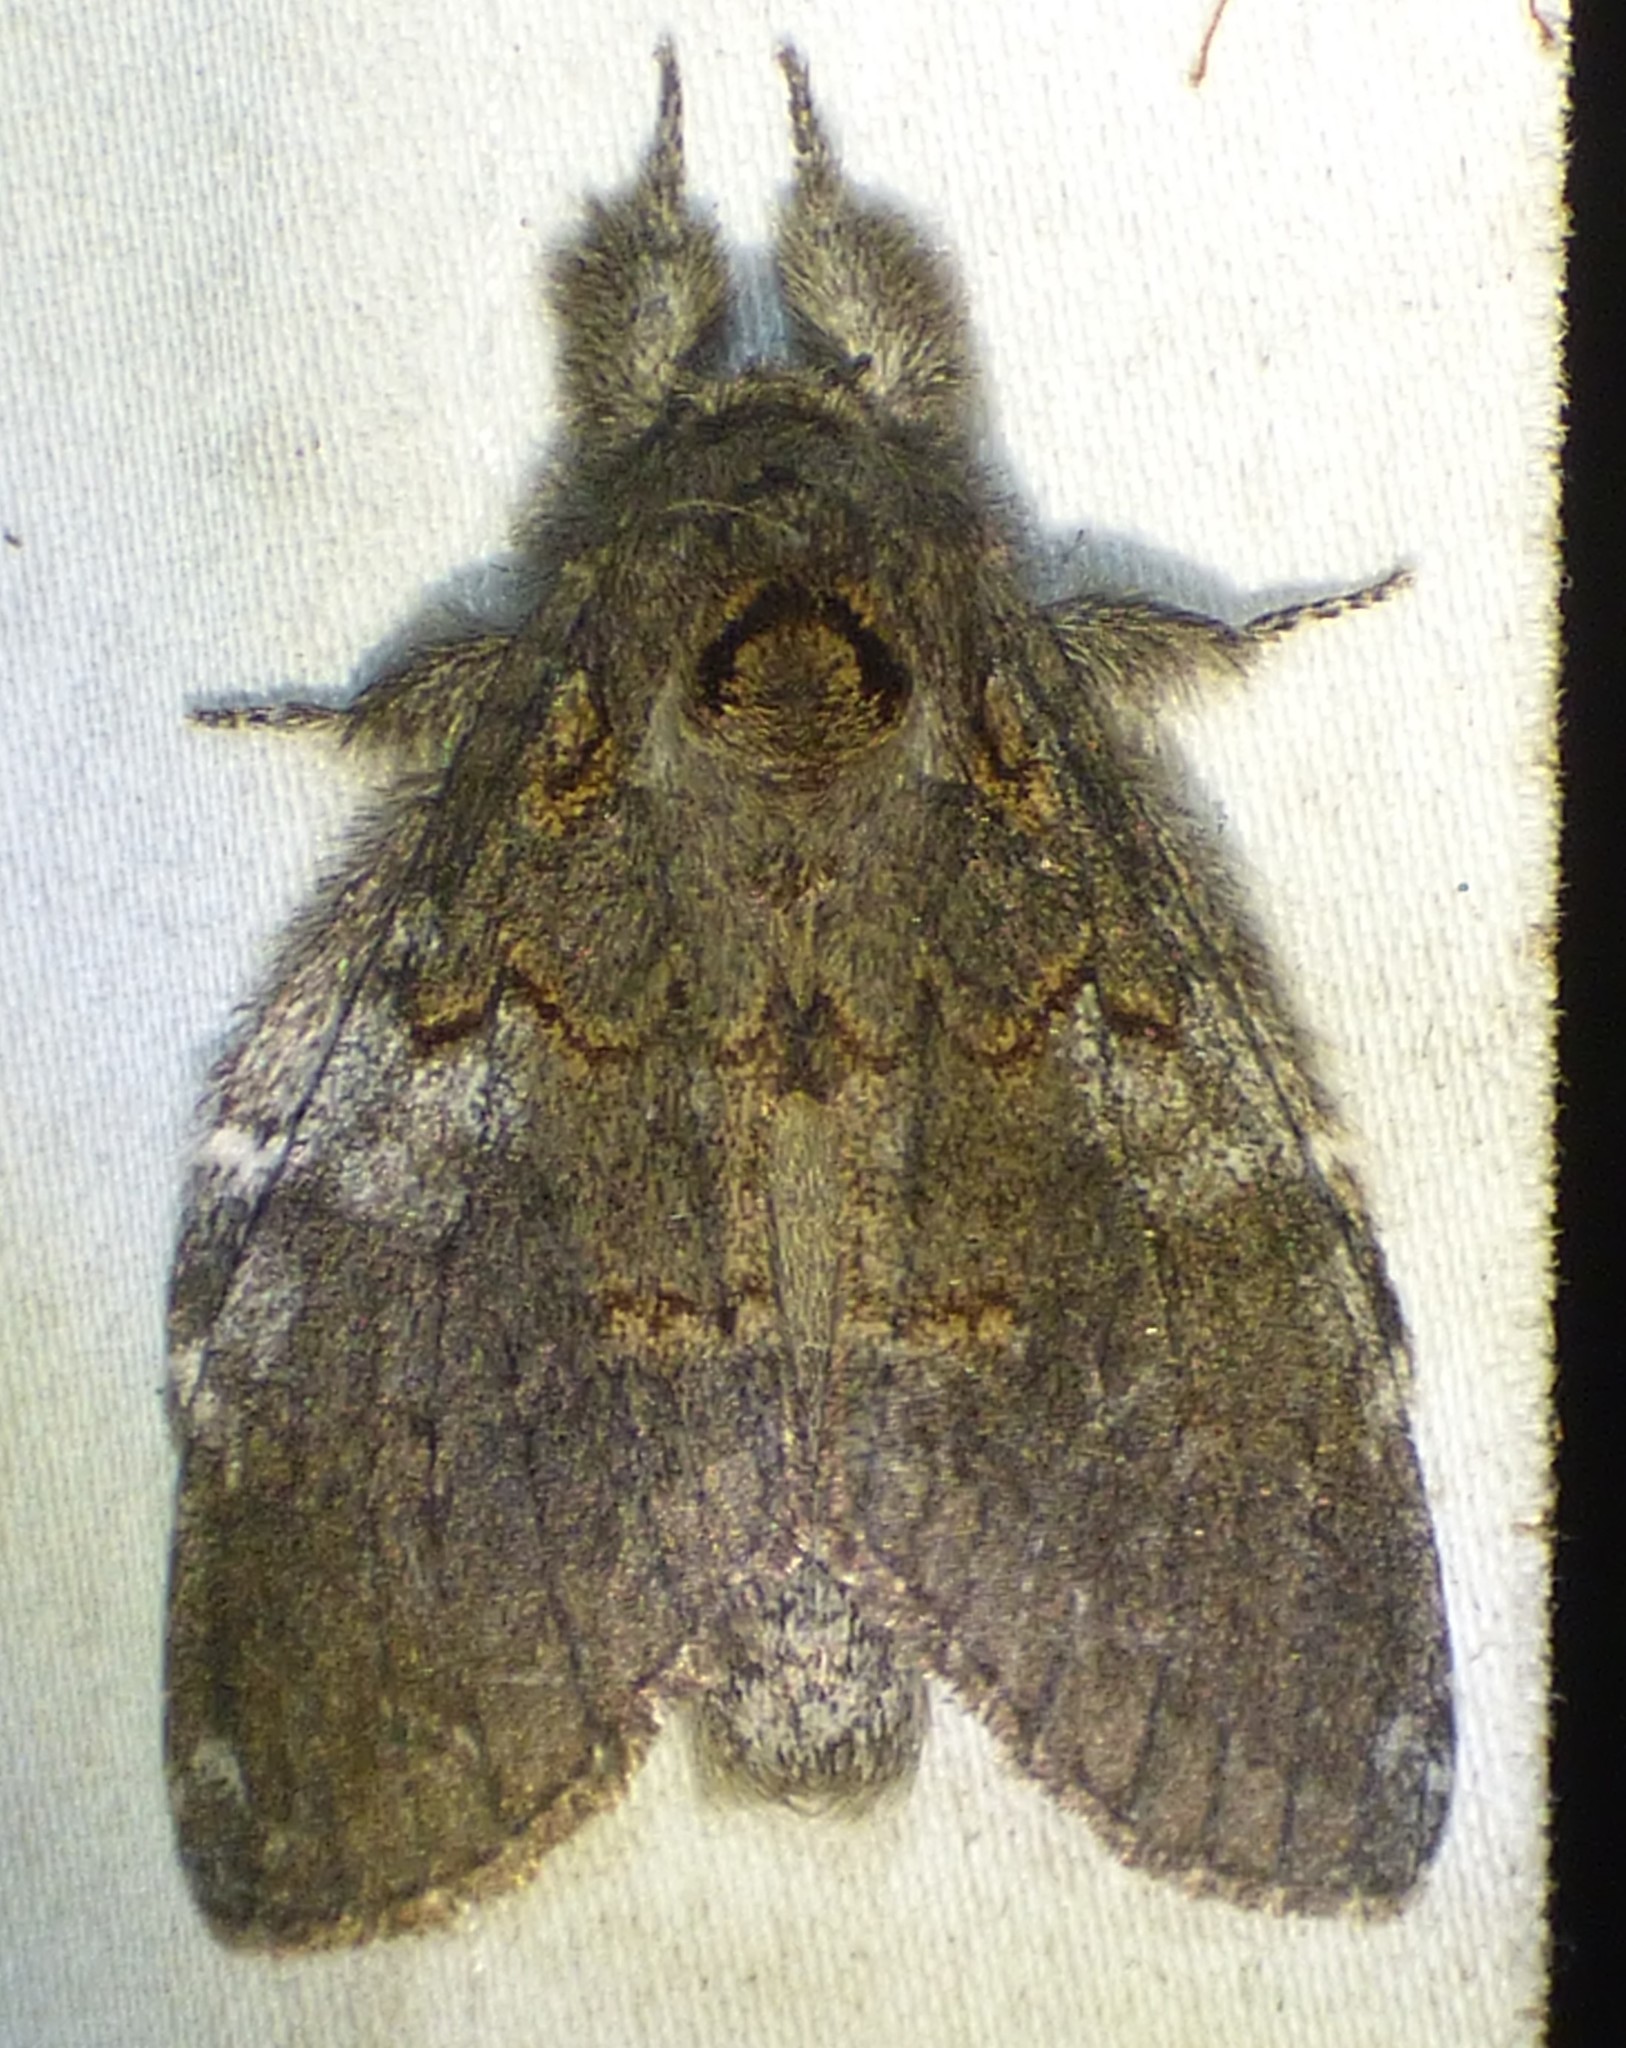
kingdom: Animalia
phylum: Arthropoda
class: Insecta
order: Lepidoptera
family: Notodontidae
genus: Peridea
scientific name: Peridea angulosa
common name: Angulose prominent
